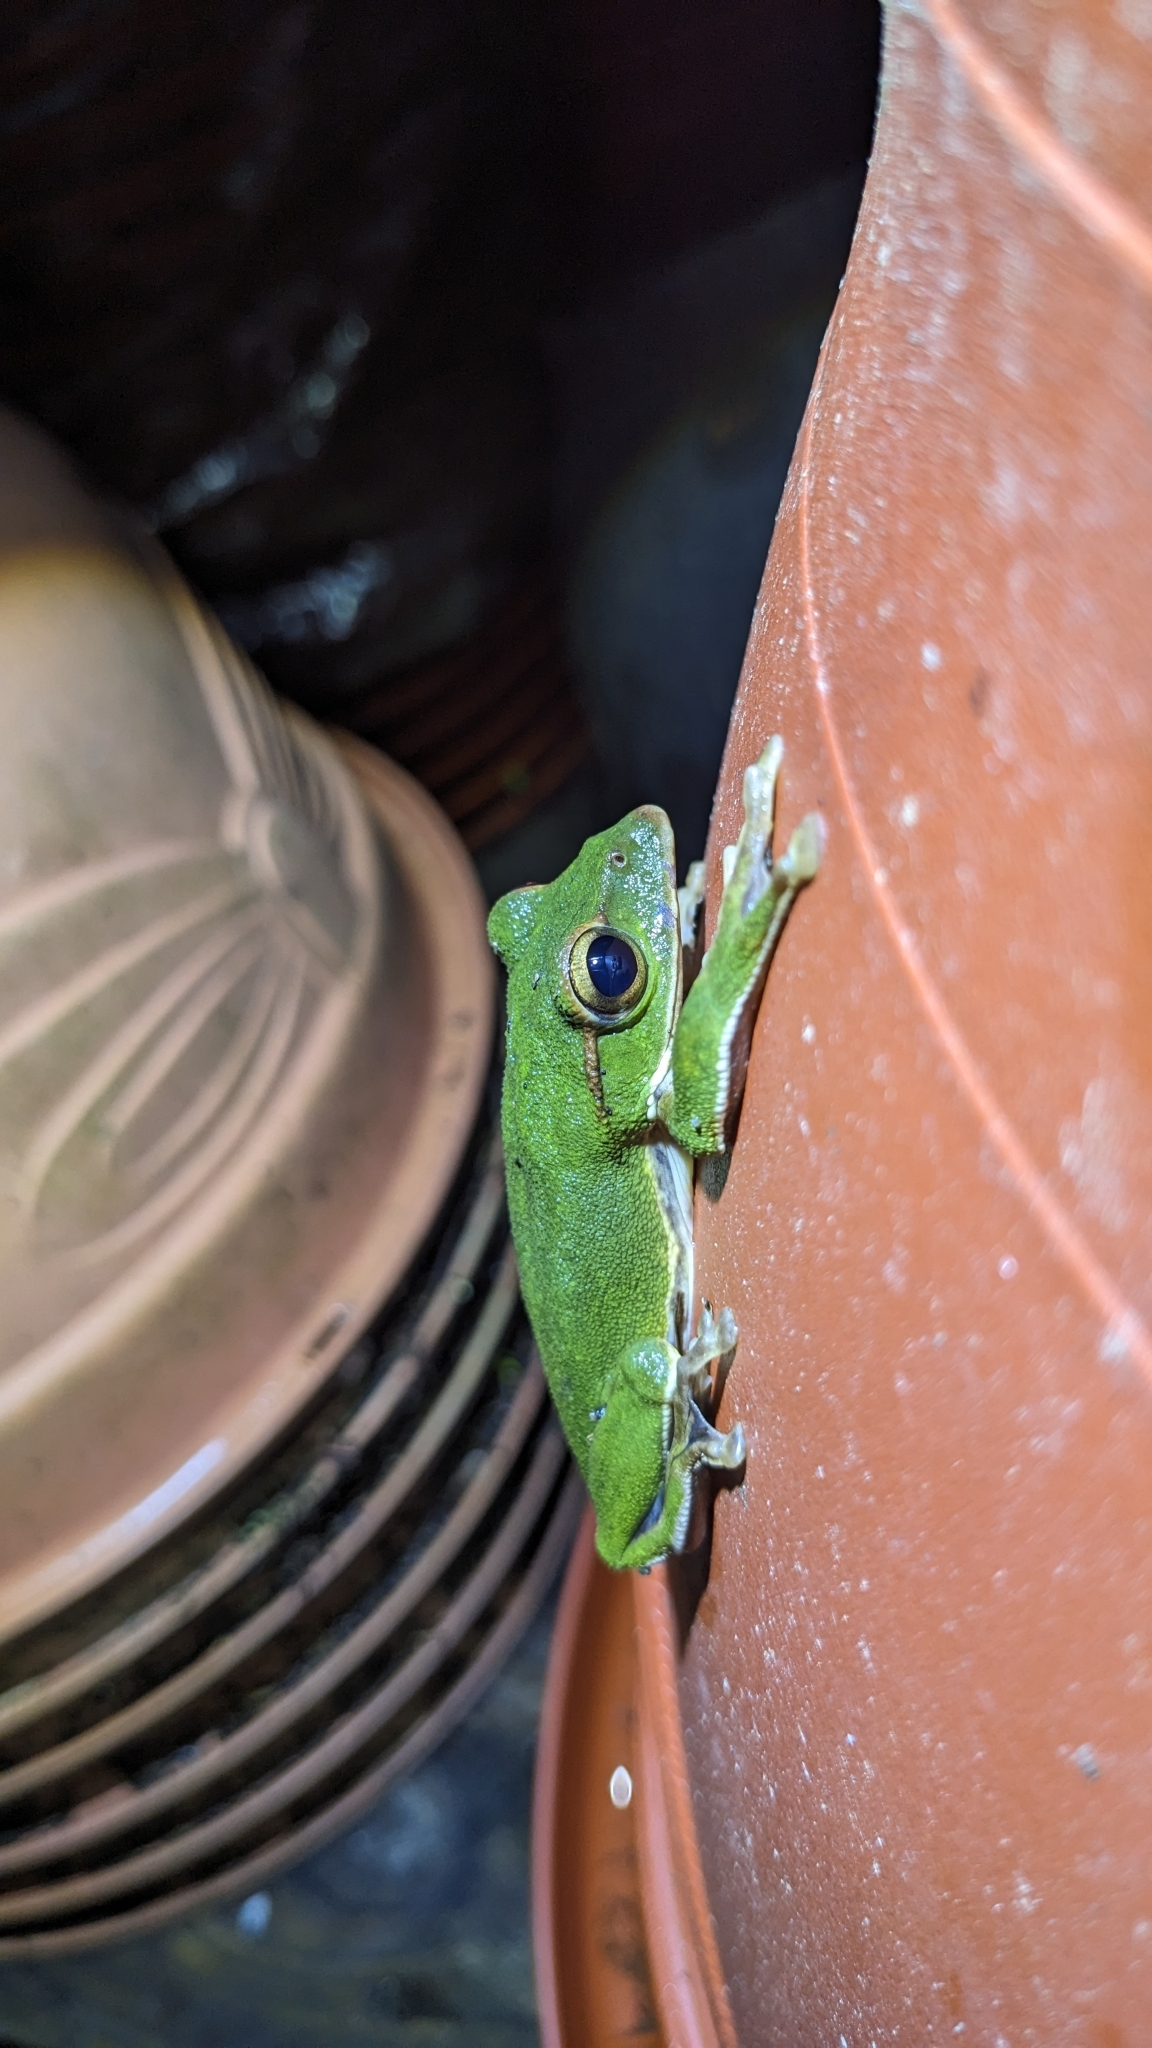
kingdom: Animalia
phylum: Chordata
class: Amphibia
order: Anura
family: Rhacophoridae
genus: Zhangixalus
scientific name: Zhangixalus prasinatus
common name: Tributary flying frog
